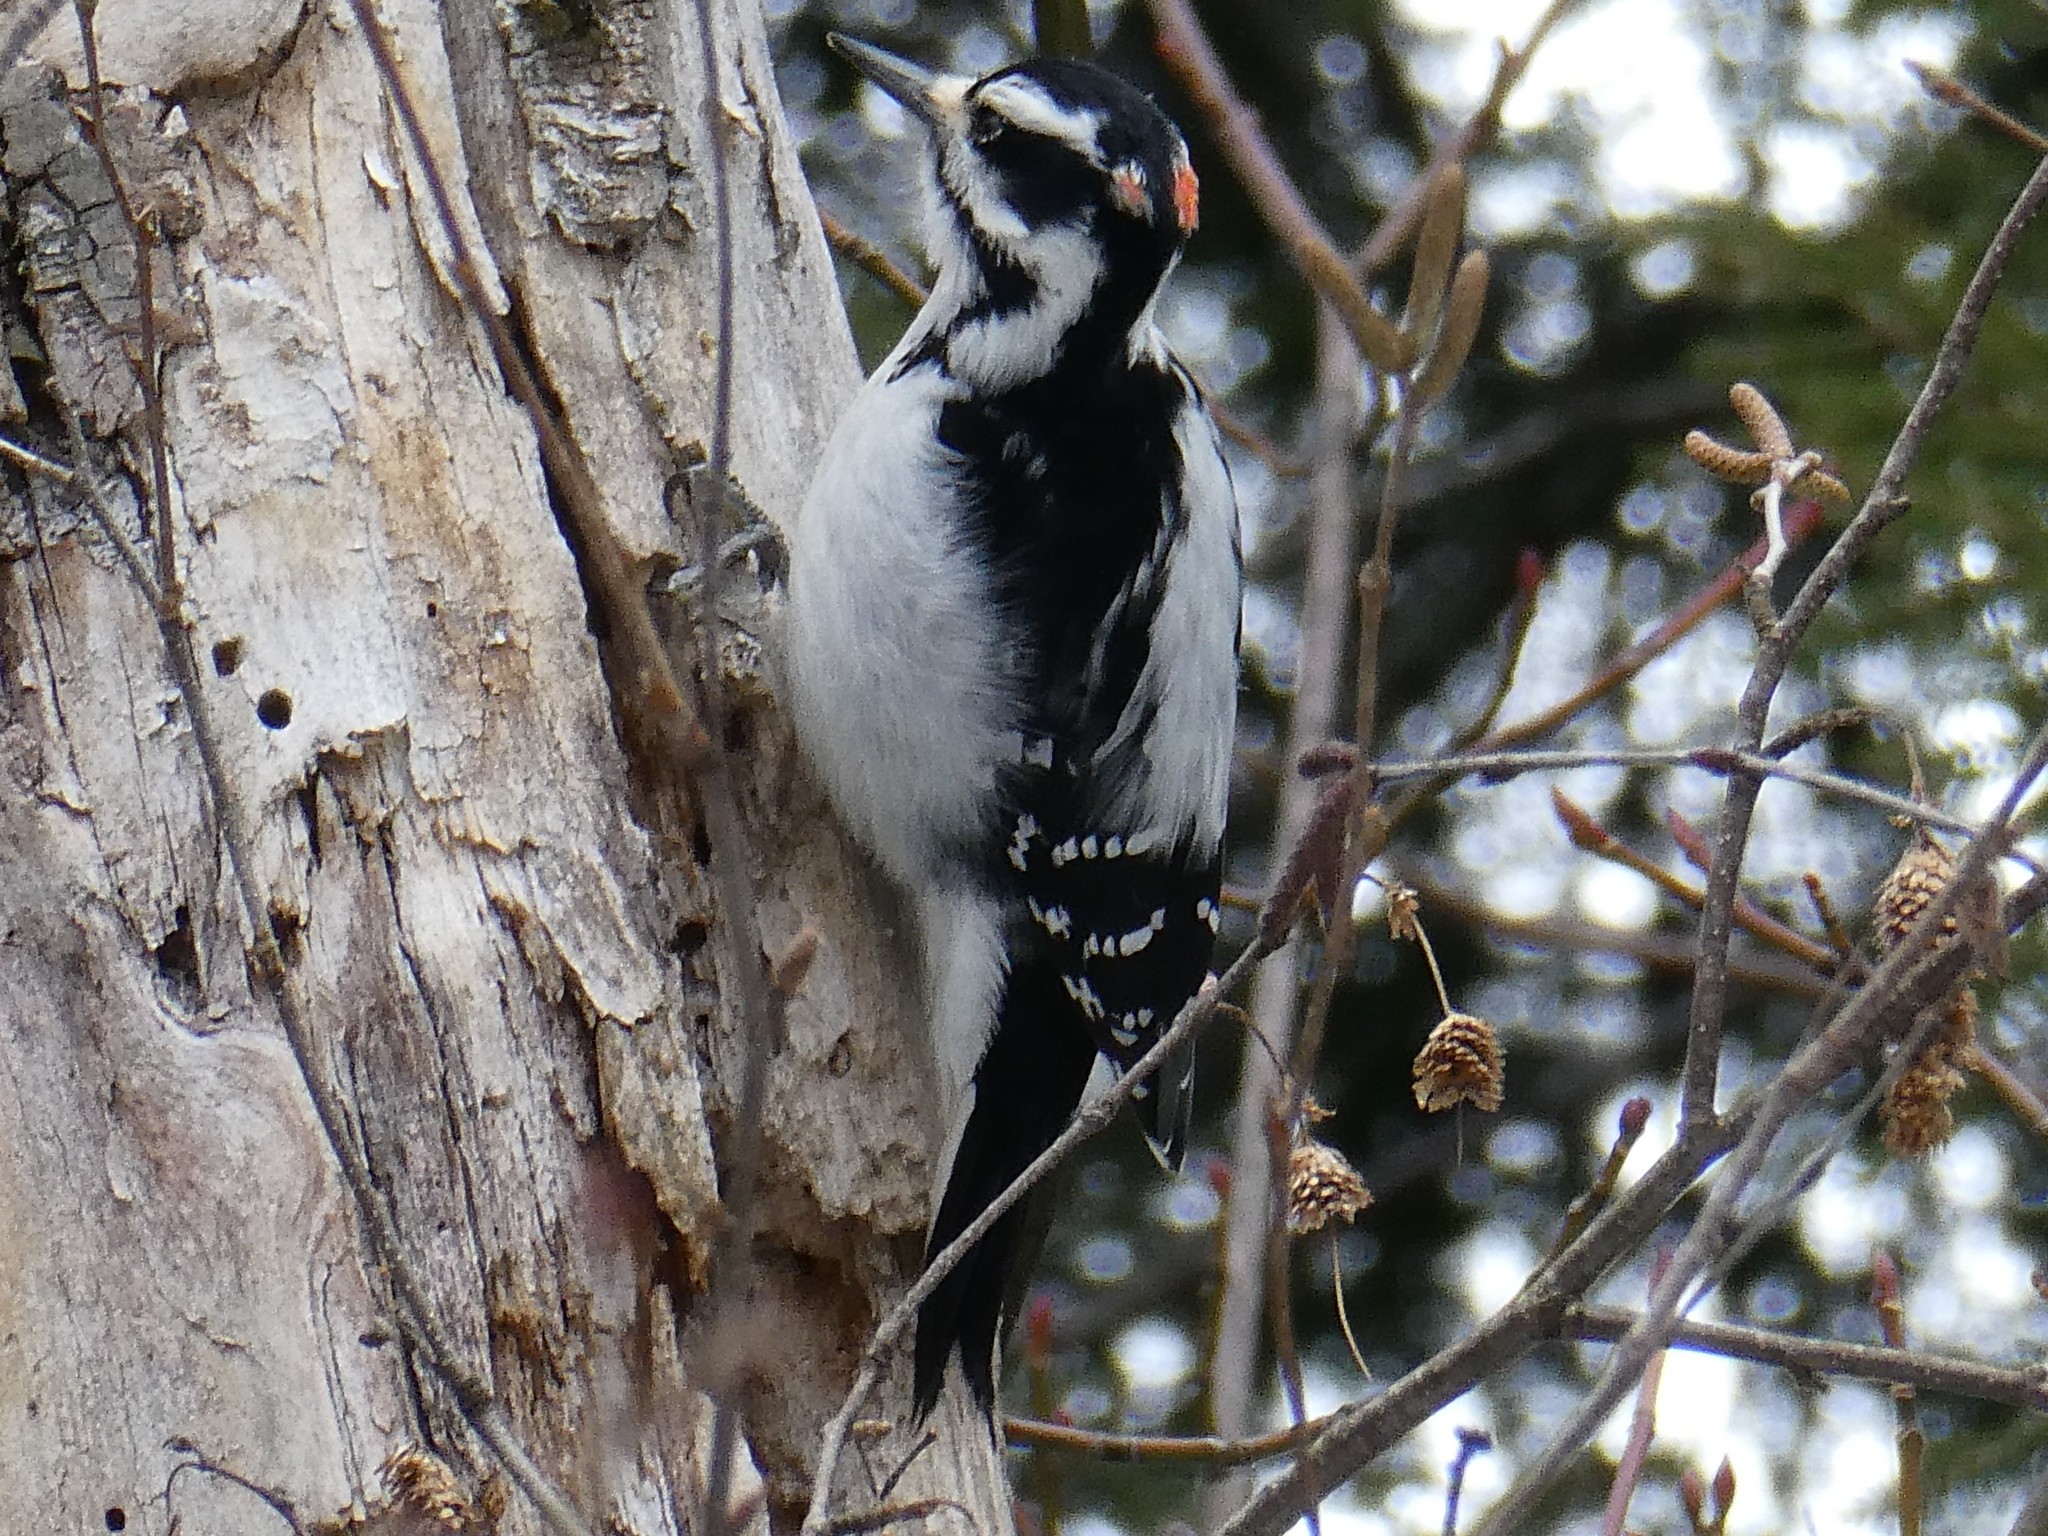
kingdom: Animalia
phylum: Chordata
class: Aves
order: Piciformes
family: Picidae
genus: Leuconotopicus
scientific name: Leuconotopicus villosus
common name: Hairy woodpecker
